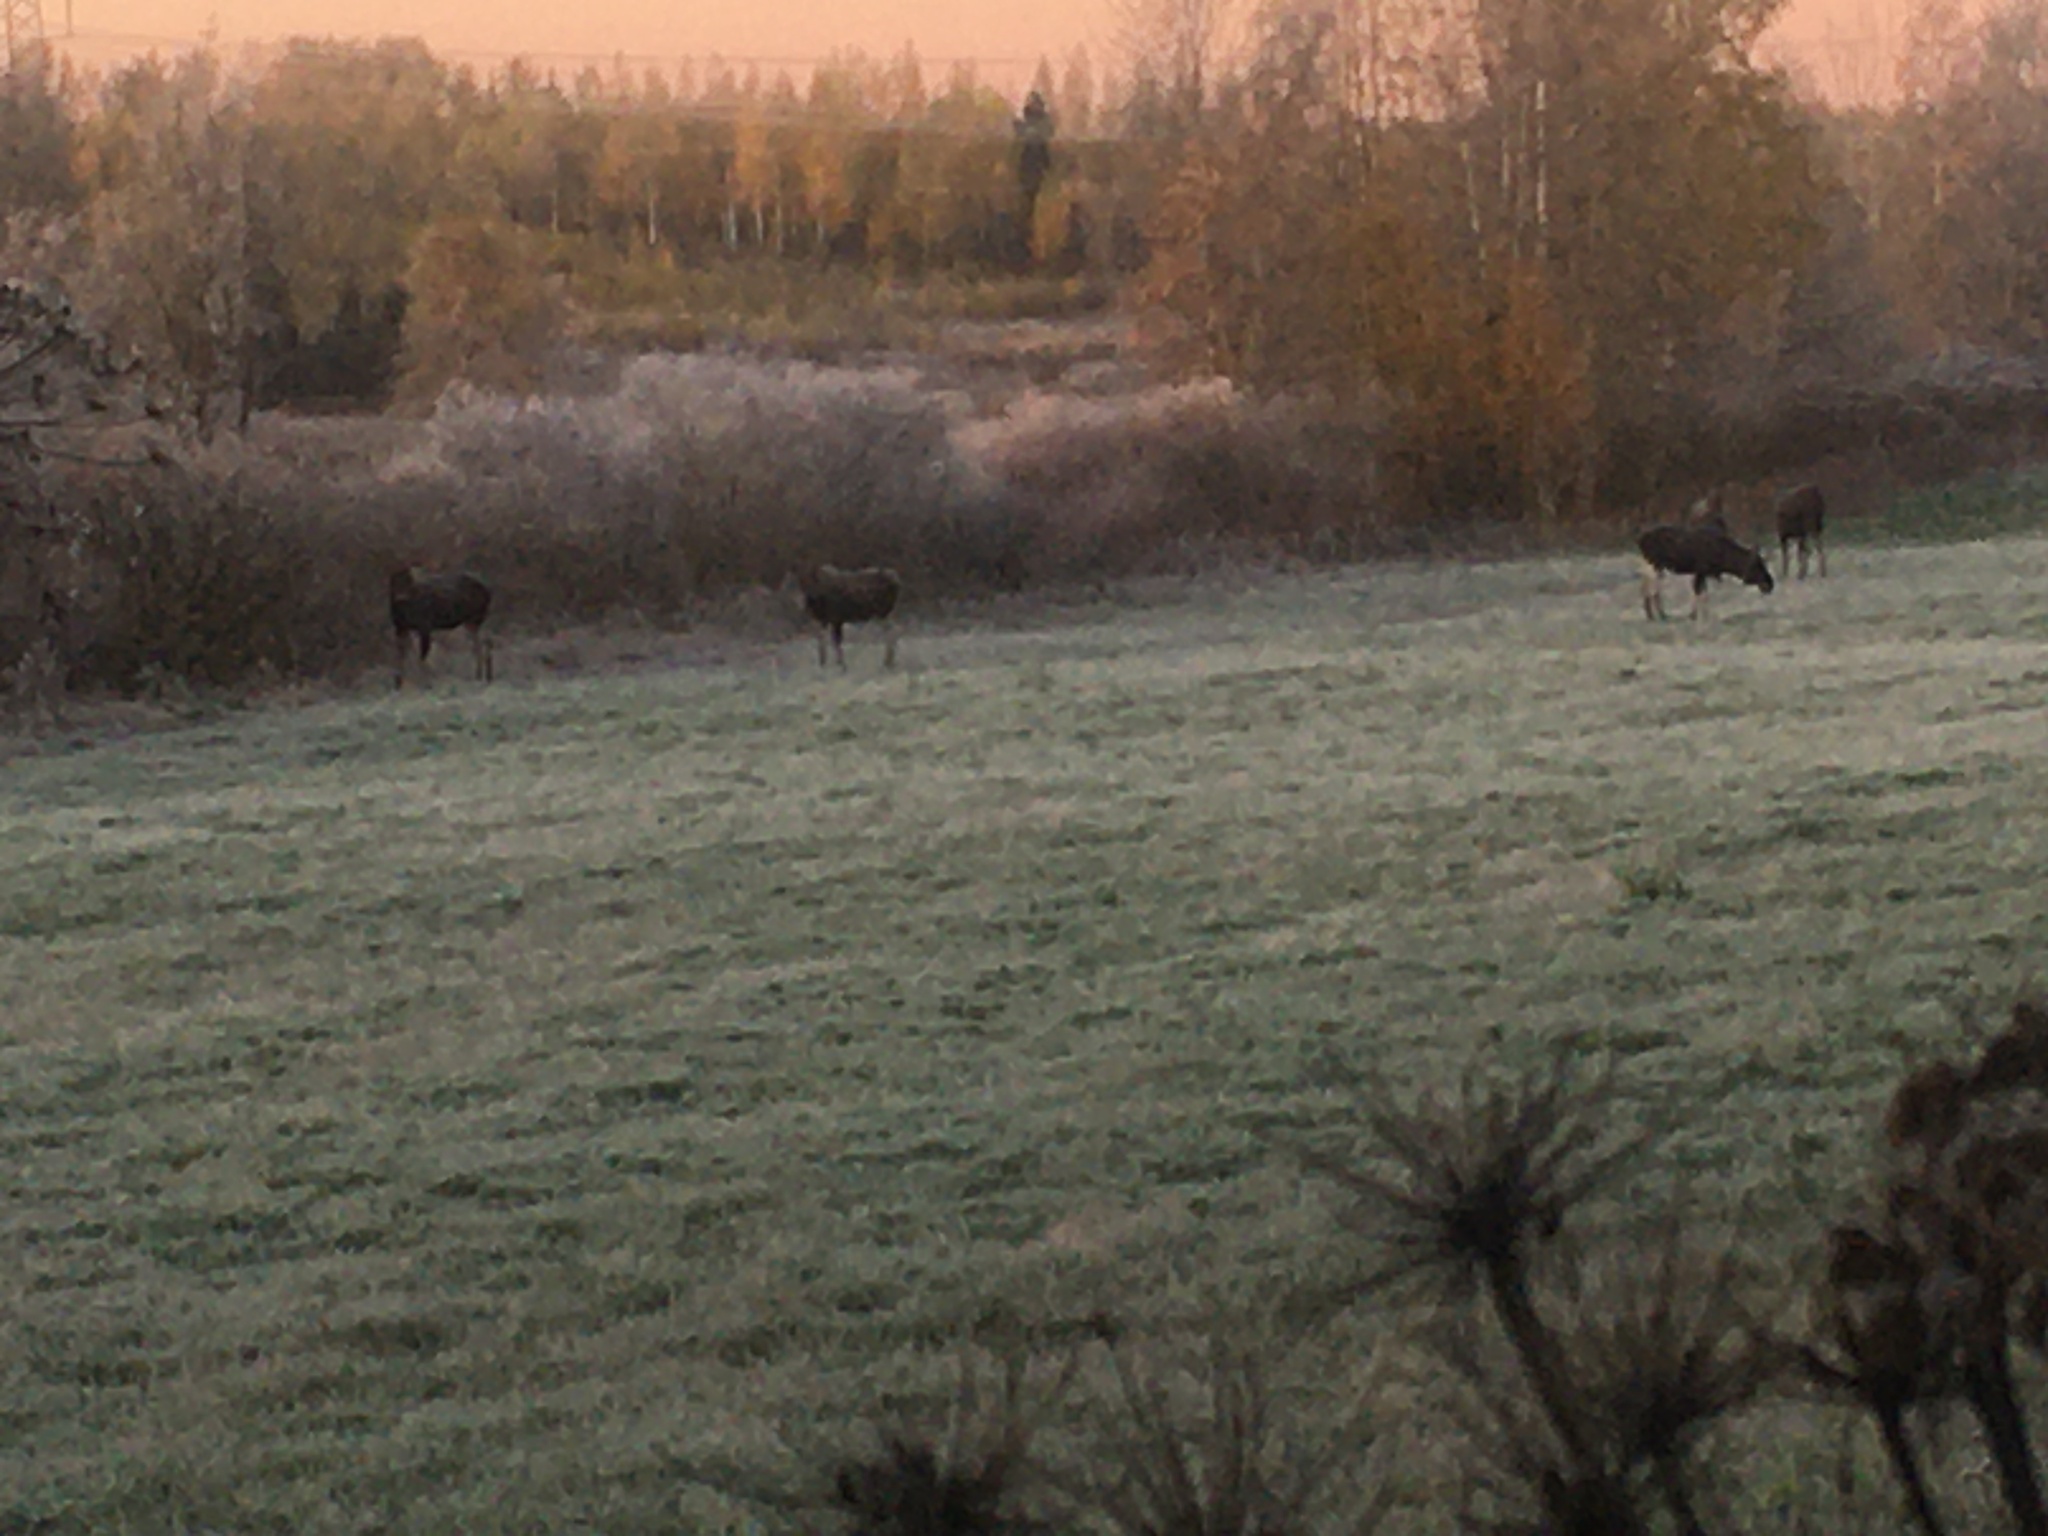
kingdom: Animalia
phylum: Chordata
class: Mammalia
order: Artiodactyla
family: Cervidae
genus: Alces
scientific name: Alces alces
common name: Moose
